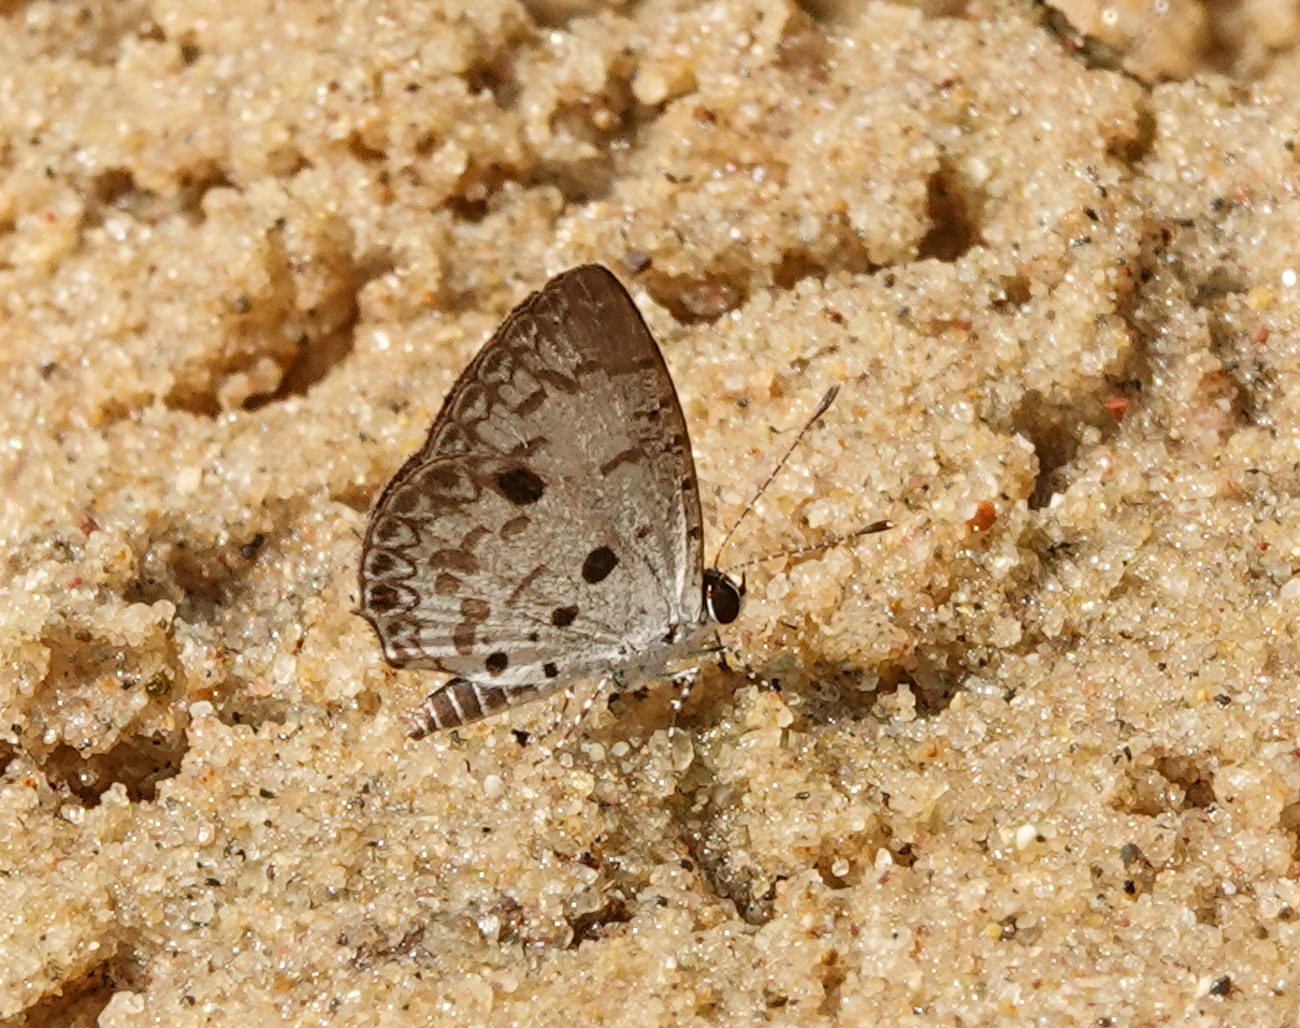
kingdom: Animalia
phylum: Arthropoda
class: Insecta
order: Lepidoptera
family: Lycaenidae
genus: Megisba
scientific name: Megisba malaya
